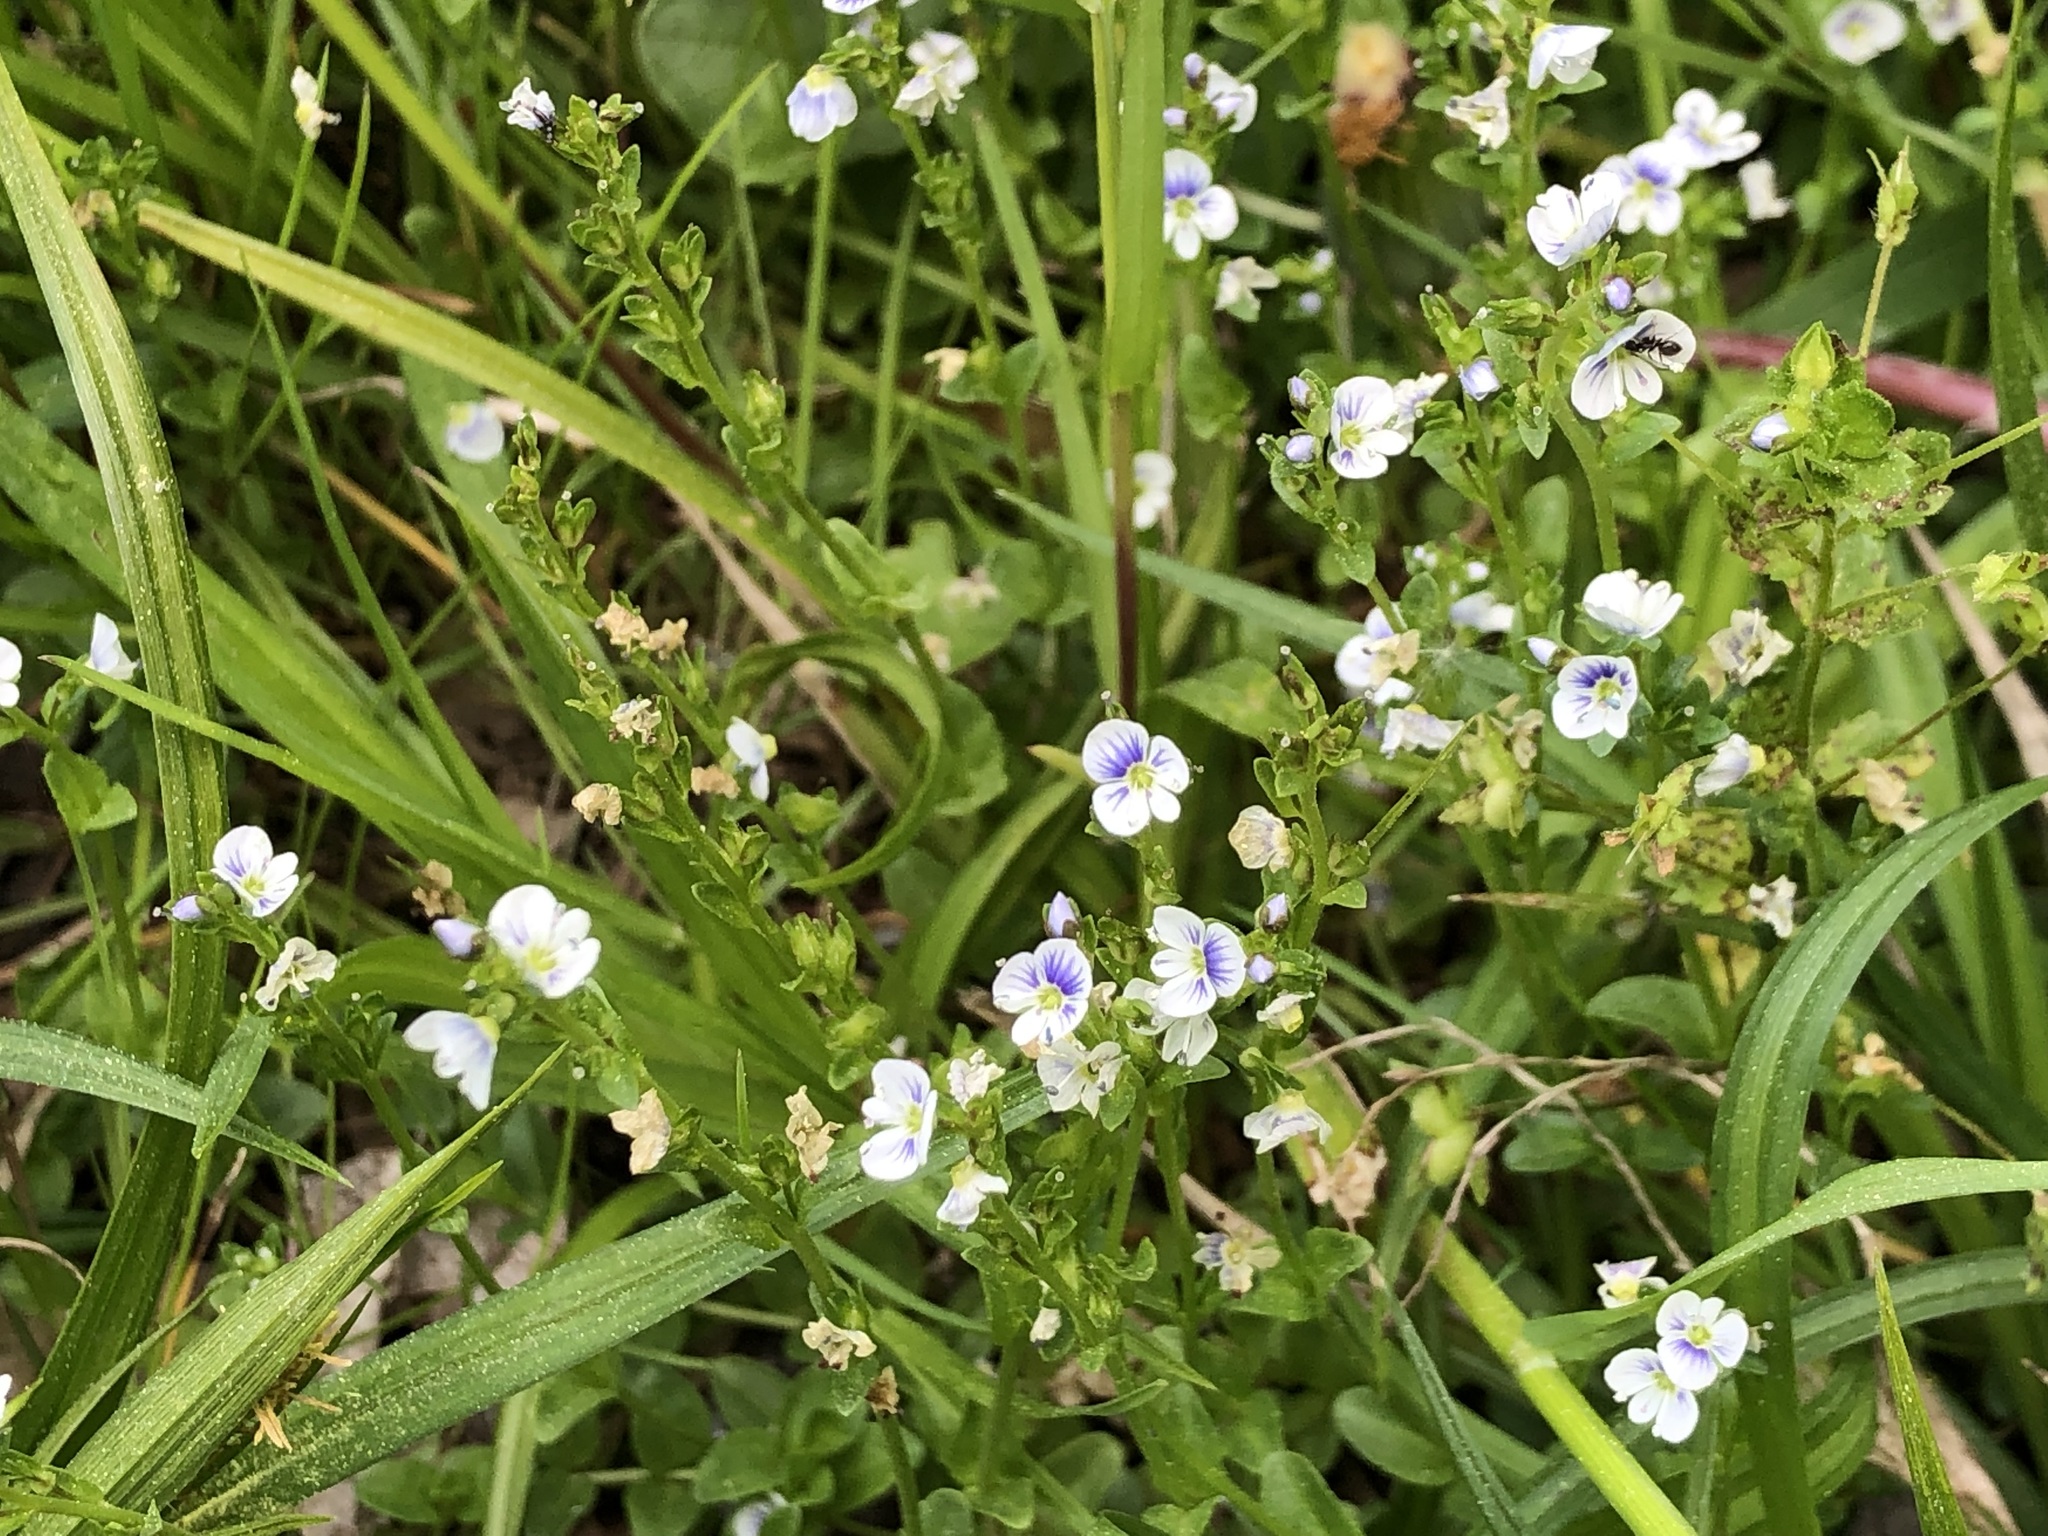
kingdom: Plantae
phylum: Tracheophyta
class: Magnoliopsida
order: Lamiales
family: Plantaginaceae
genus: Veronica
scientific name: Veronica serpyllifolia
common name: Thyme-leaved speedwell
